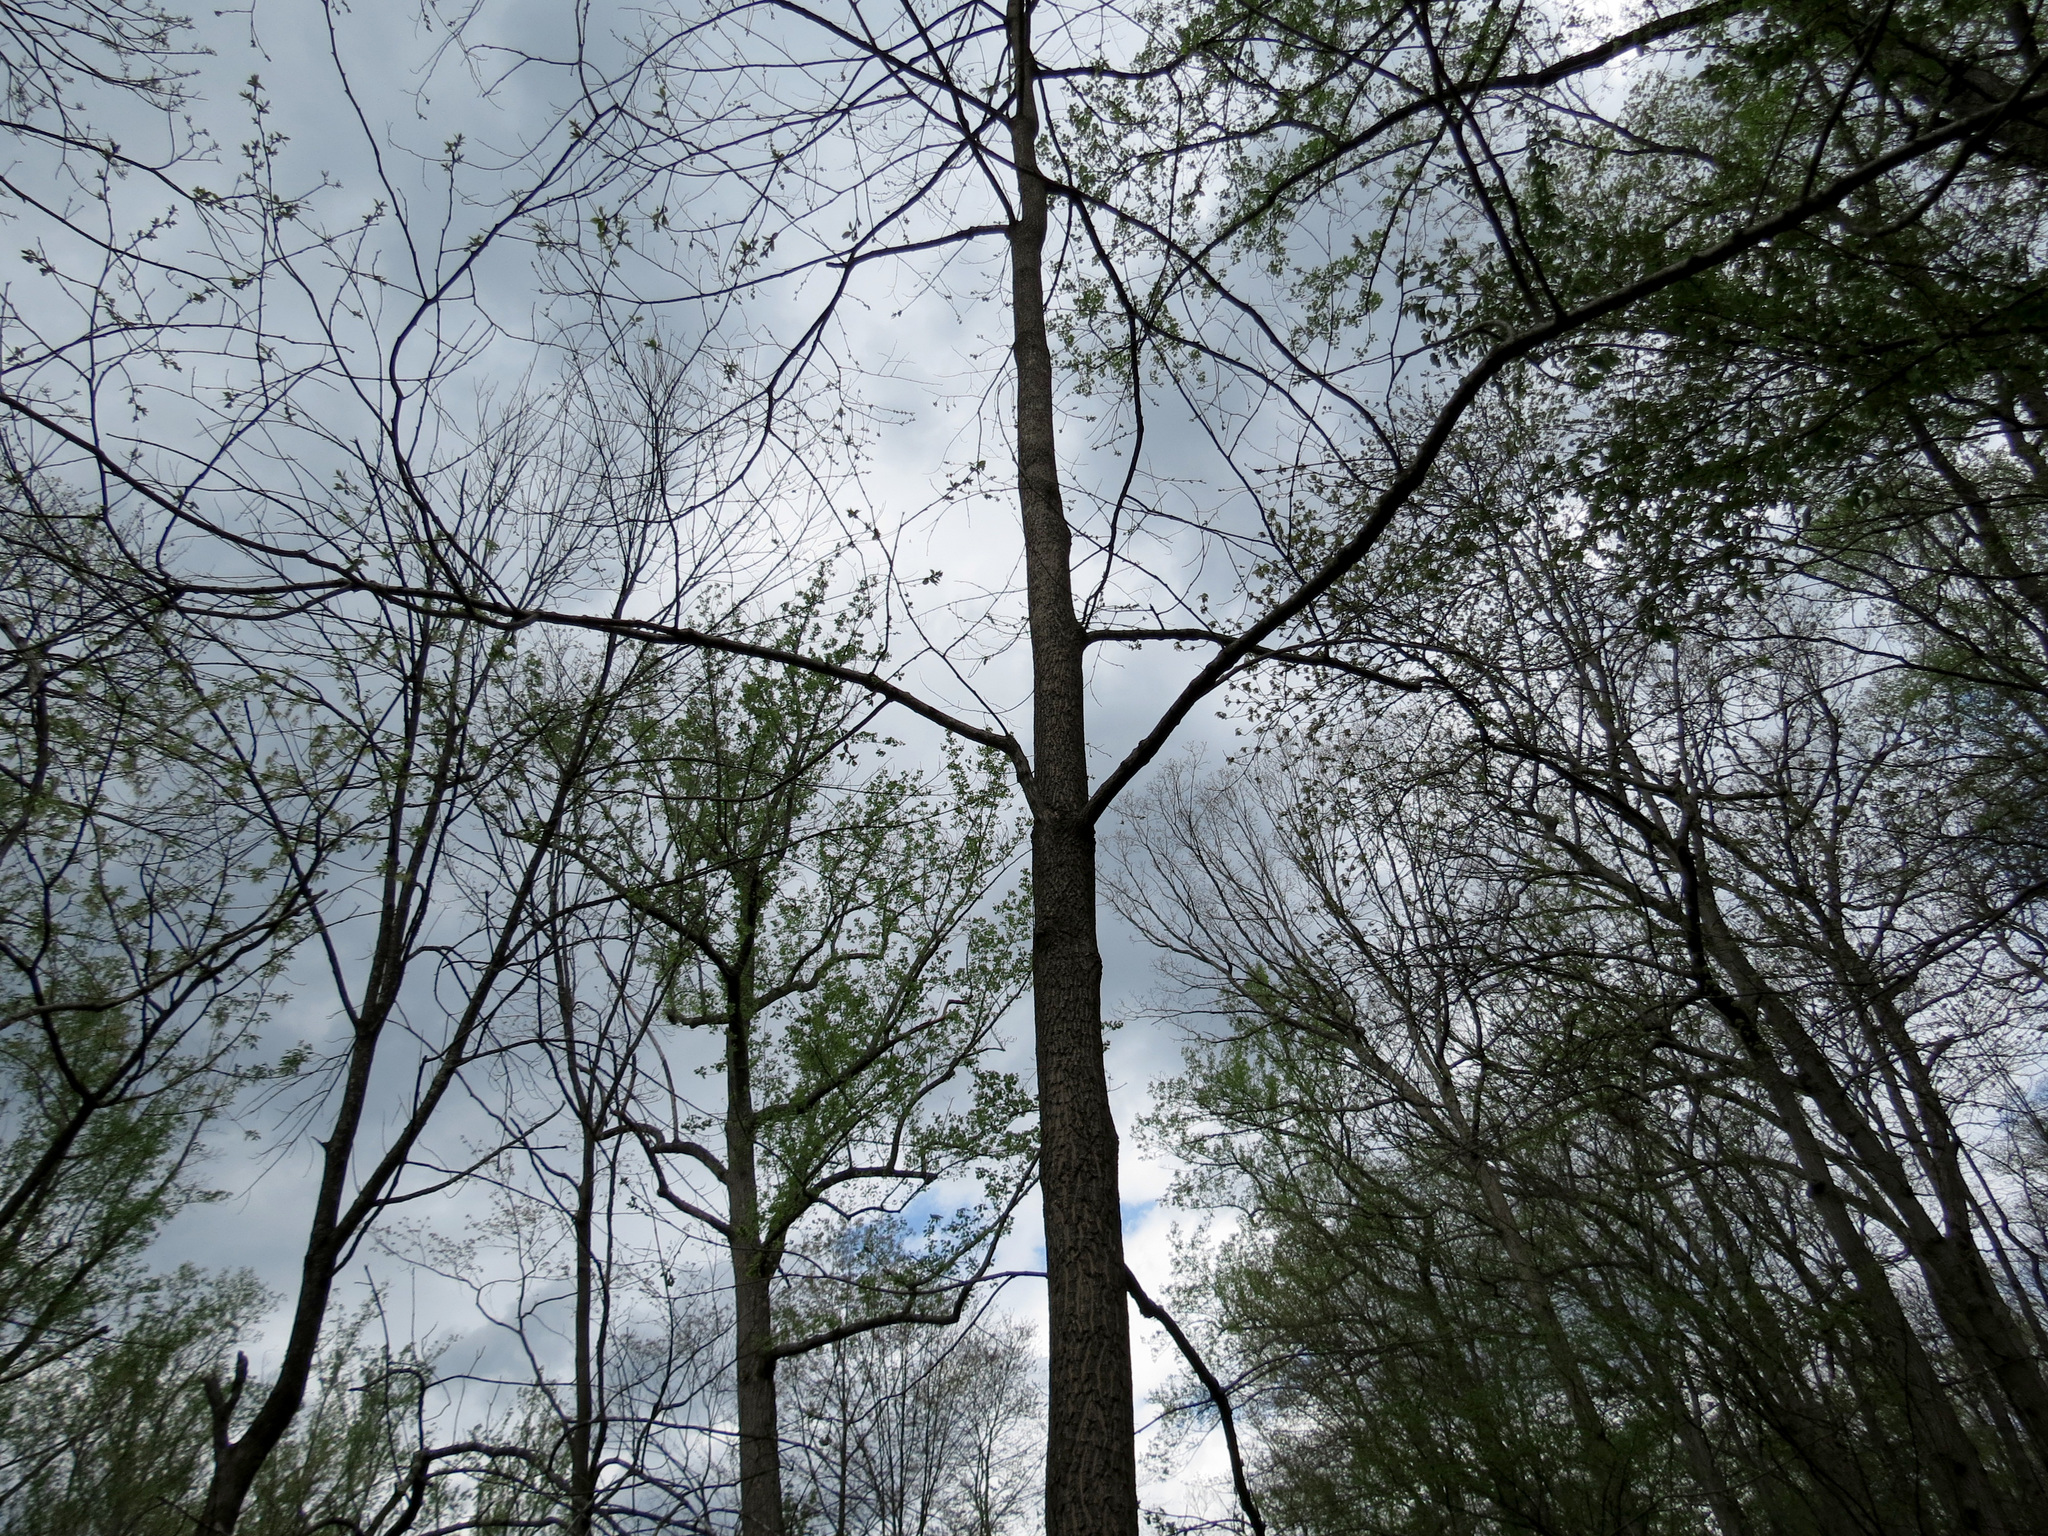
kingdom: Plantae
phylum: Tracheophyta
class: Magnoliopsida
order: Ericales
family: Ebenaceae
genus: Diospyros
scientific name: Diospyros virginiana
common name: Persimmon
